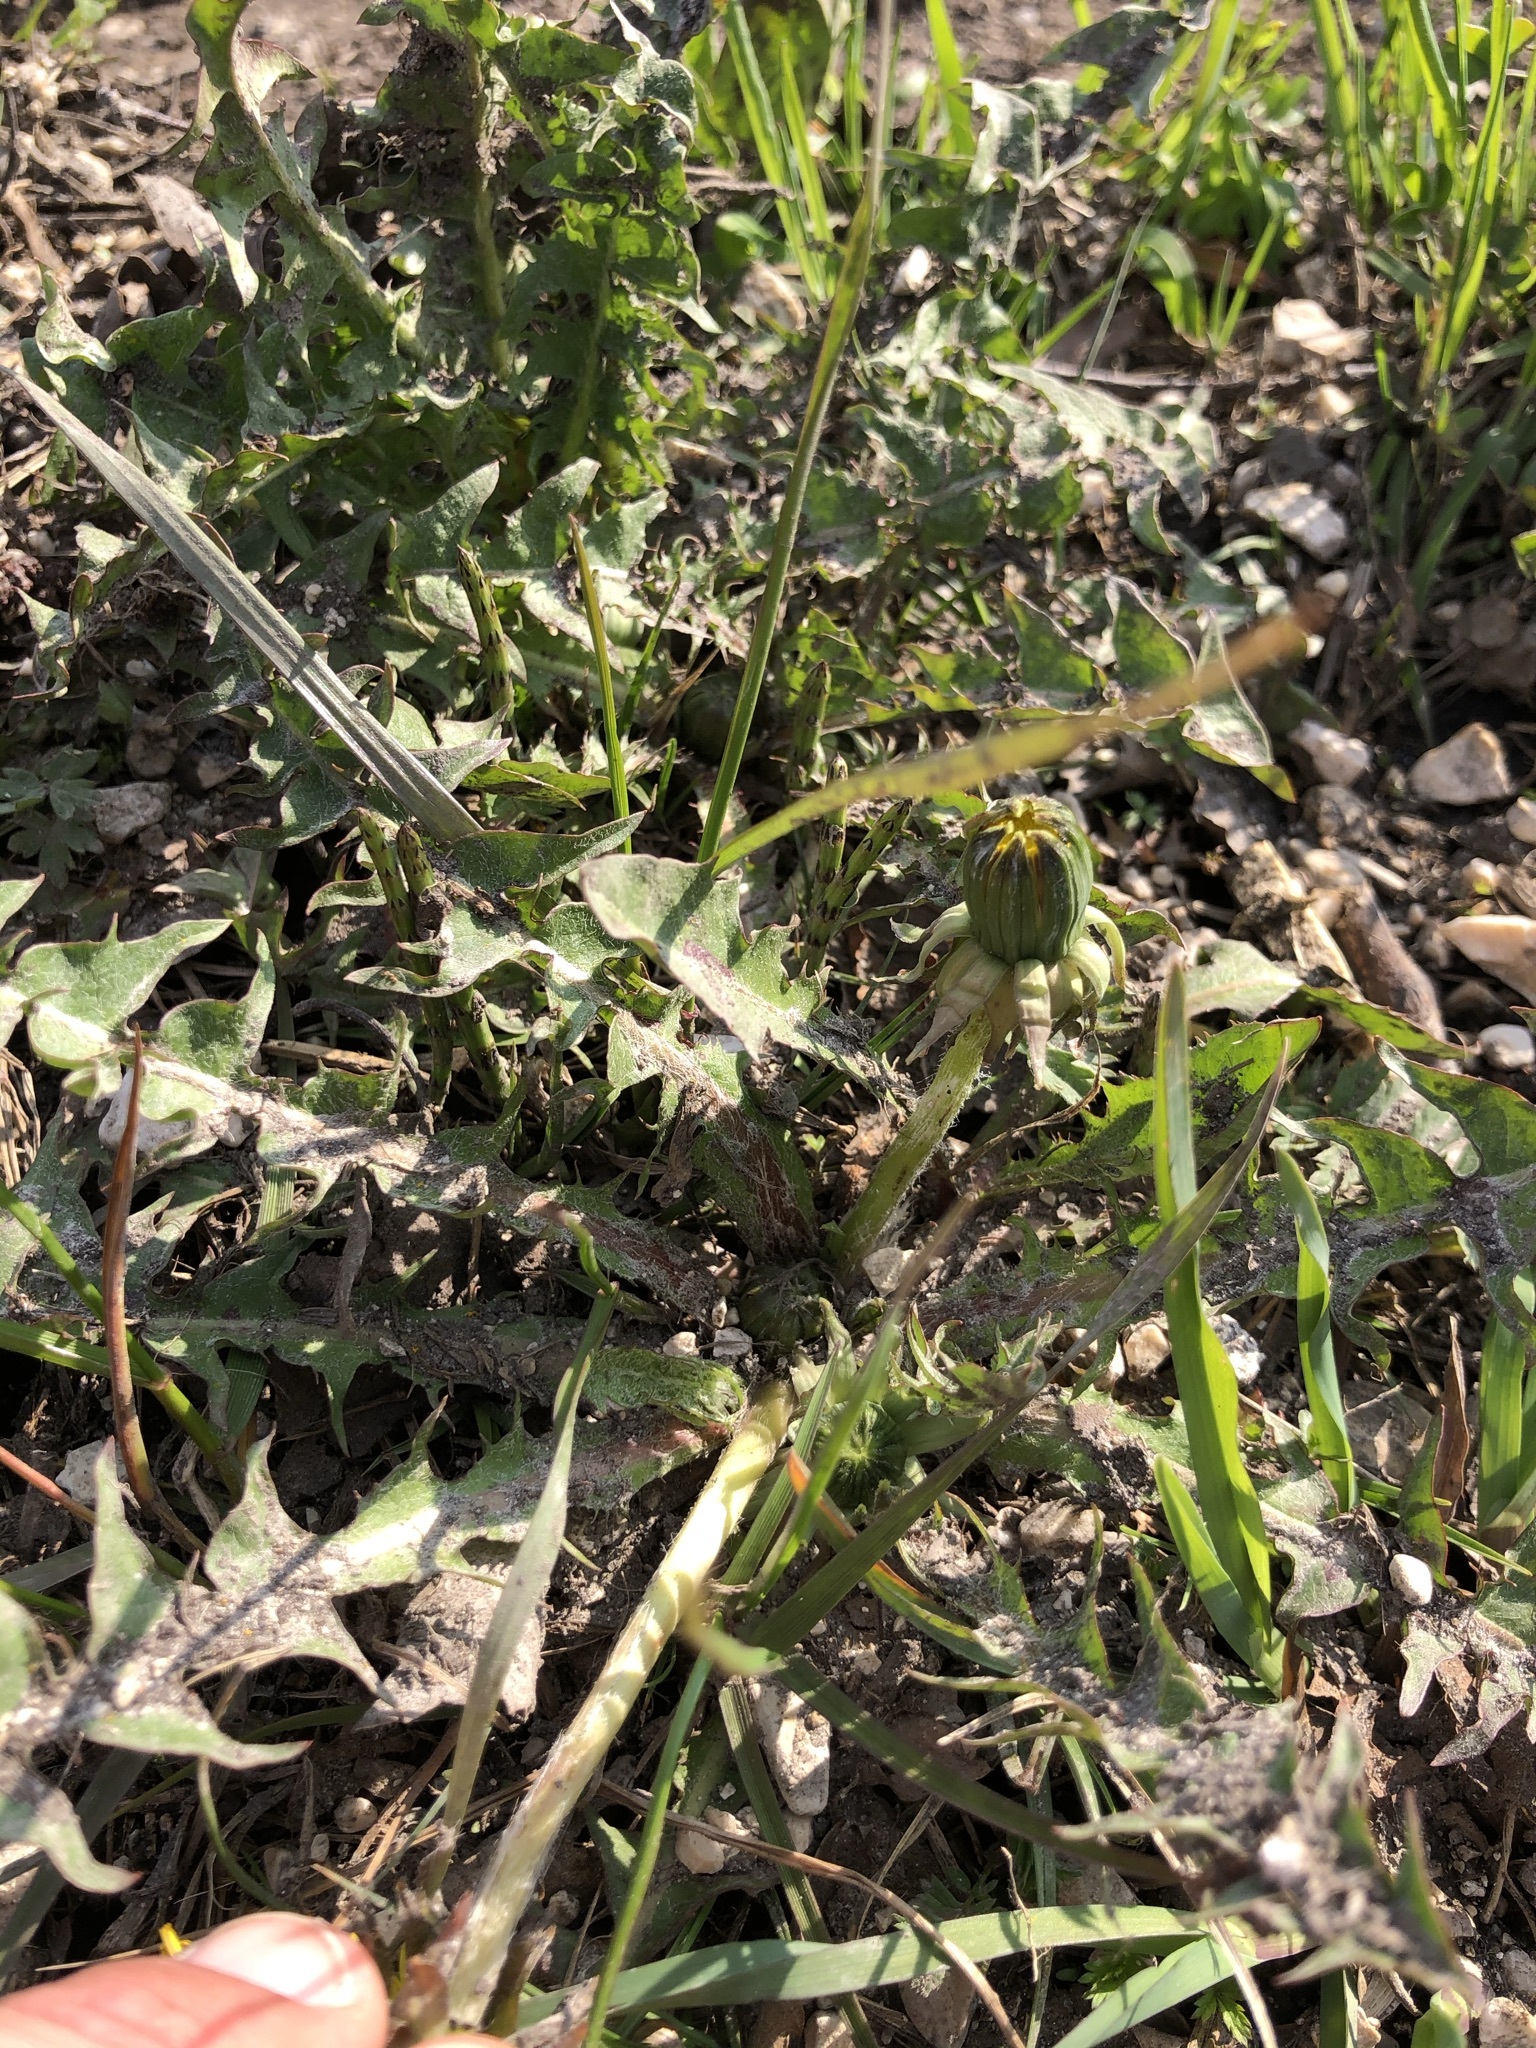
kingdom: Plantae
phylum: Tracheophyta
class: Magnoliopsida
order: Asterales
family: Asteraceae
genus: Taraxacum
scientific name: Taraxacum
